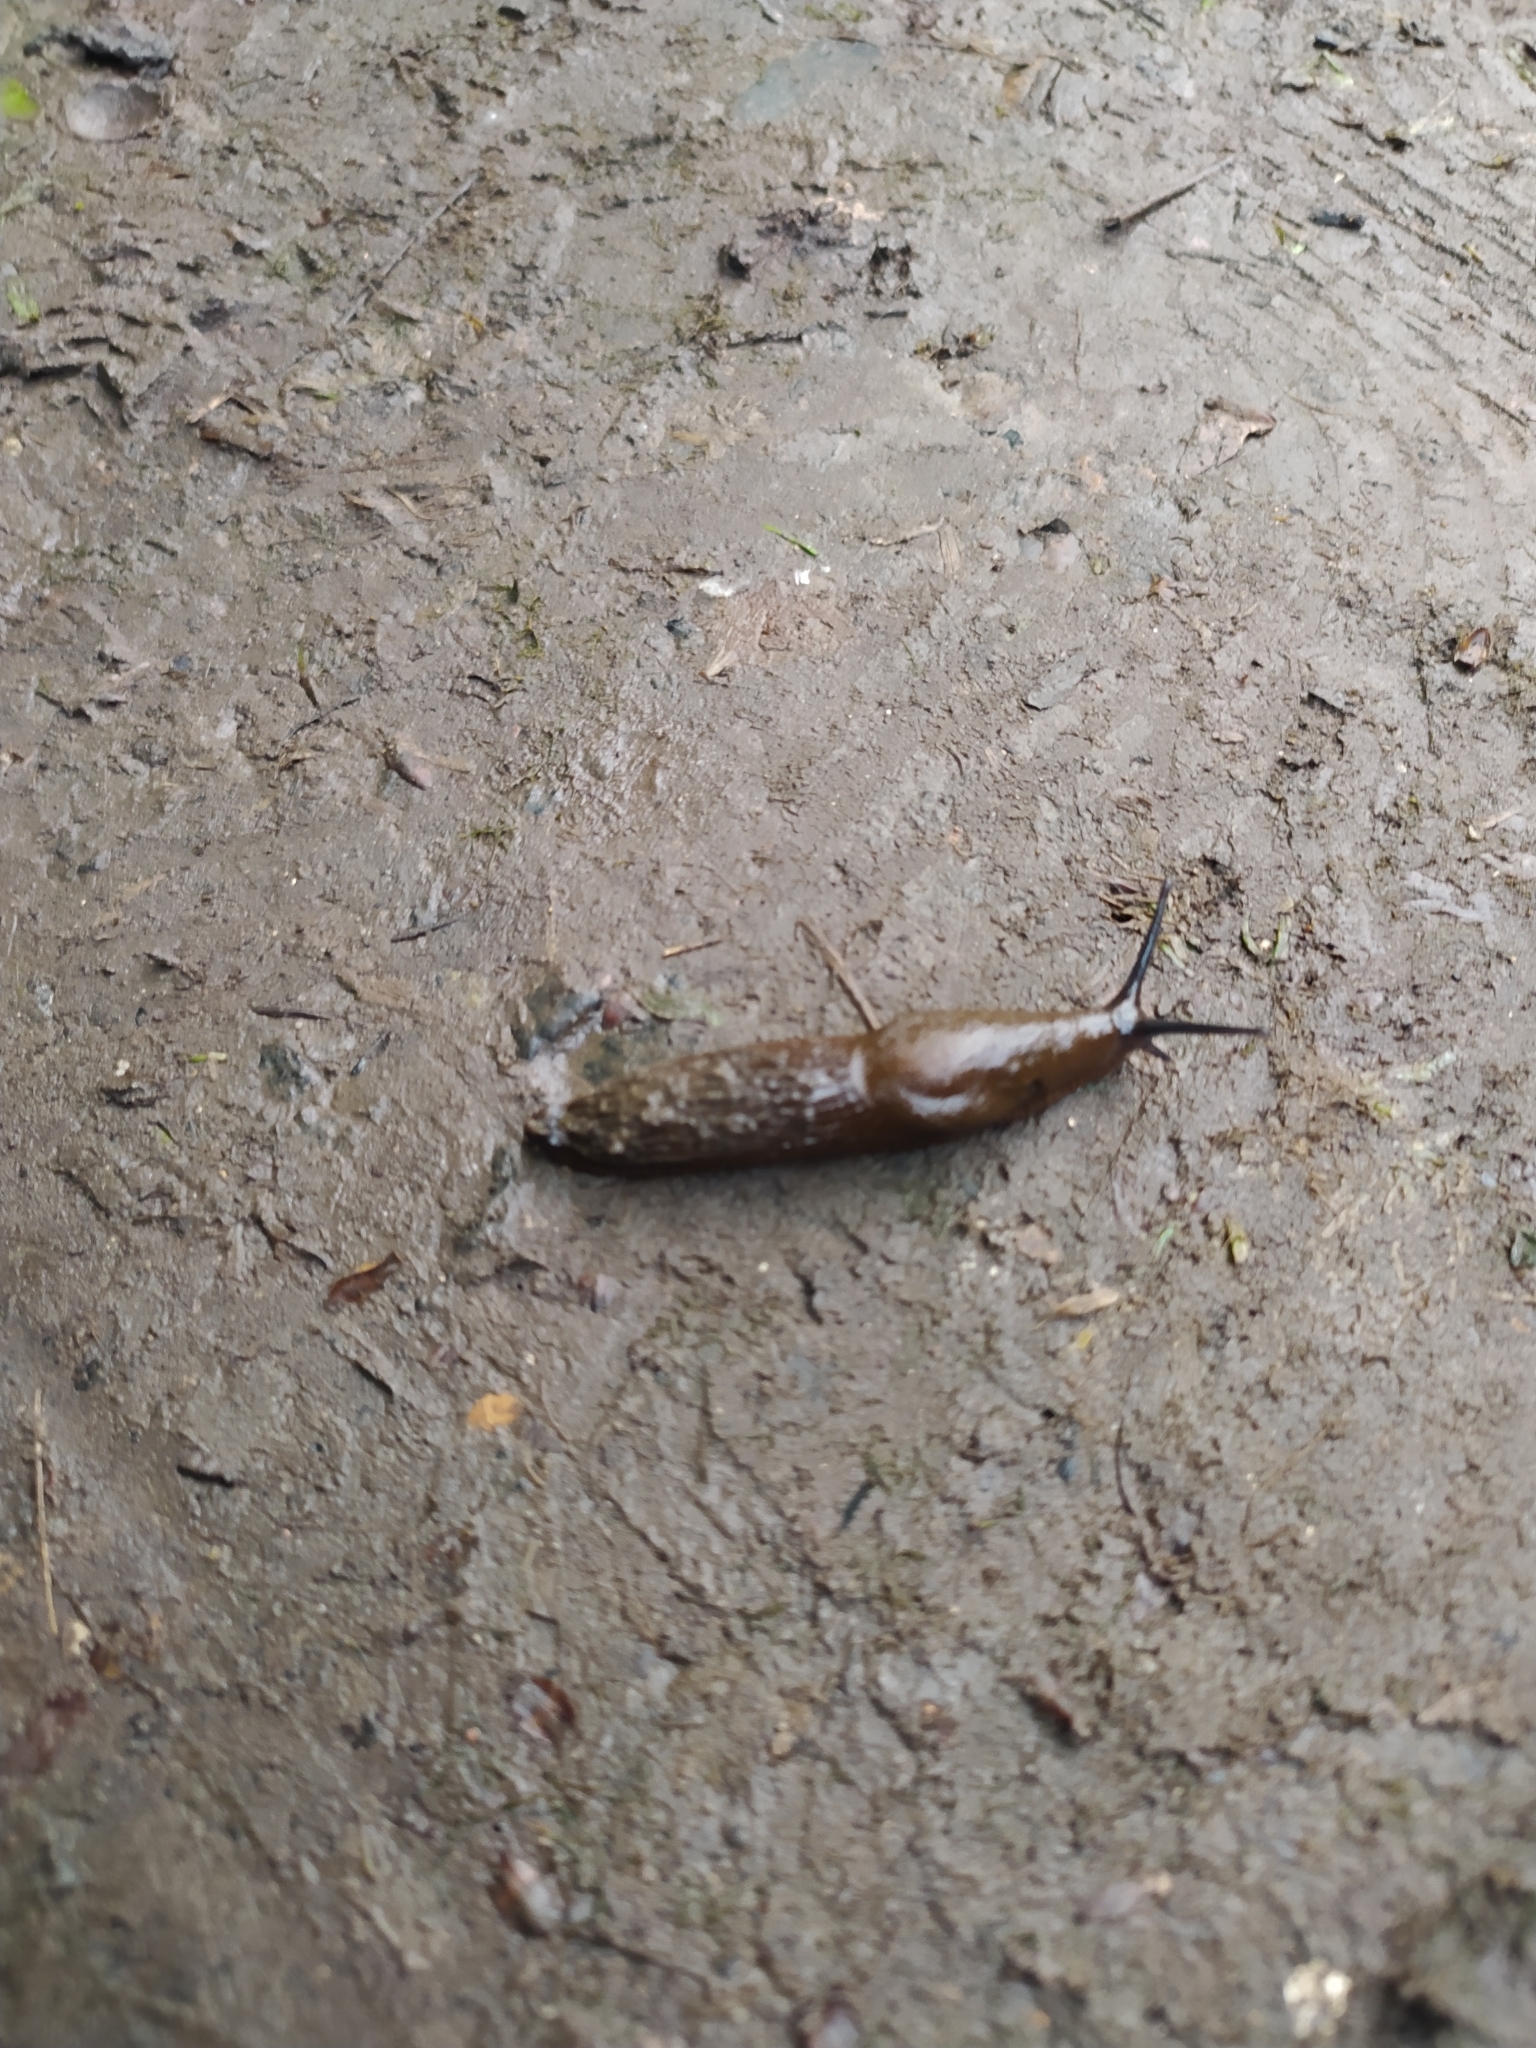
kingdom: Animalia
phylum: Mollusca
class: Gastropoda
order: Stylommatophora
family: Arionidae
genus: Arion
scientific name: Arion vulgaris
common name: Lusitanian slug
